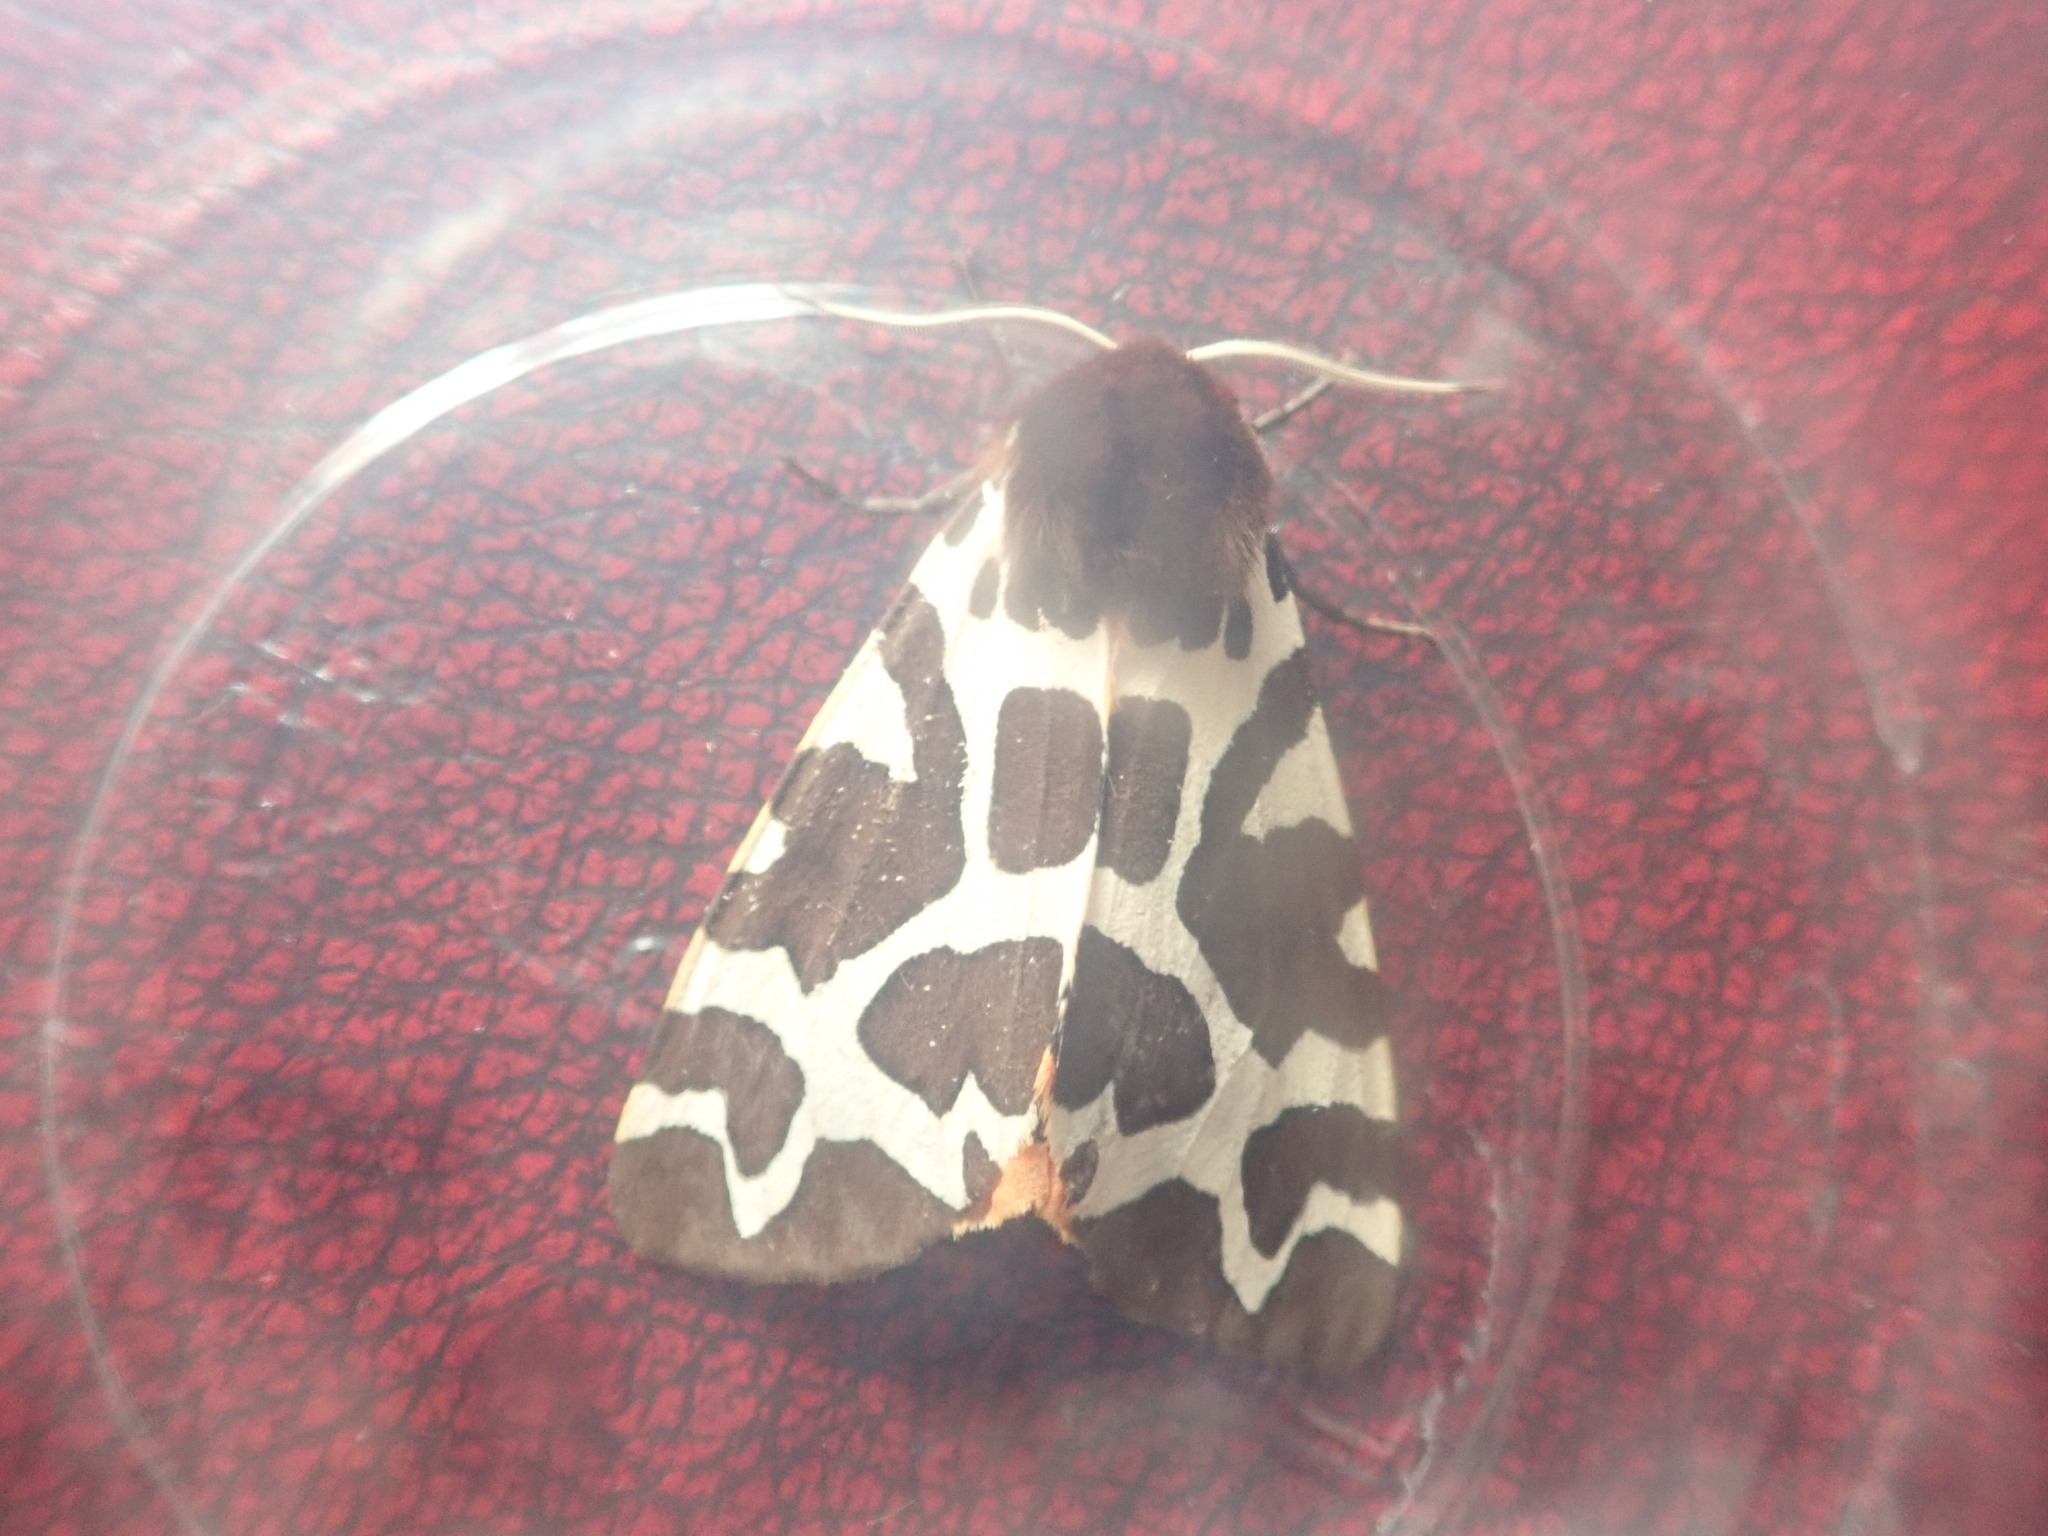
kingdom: Animalia
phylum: Arthropoda
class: Insecta
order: Lepidoptera
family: Erebidae
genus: Arctia
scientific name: Arctia caja
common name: Garden tiger
